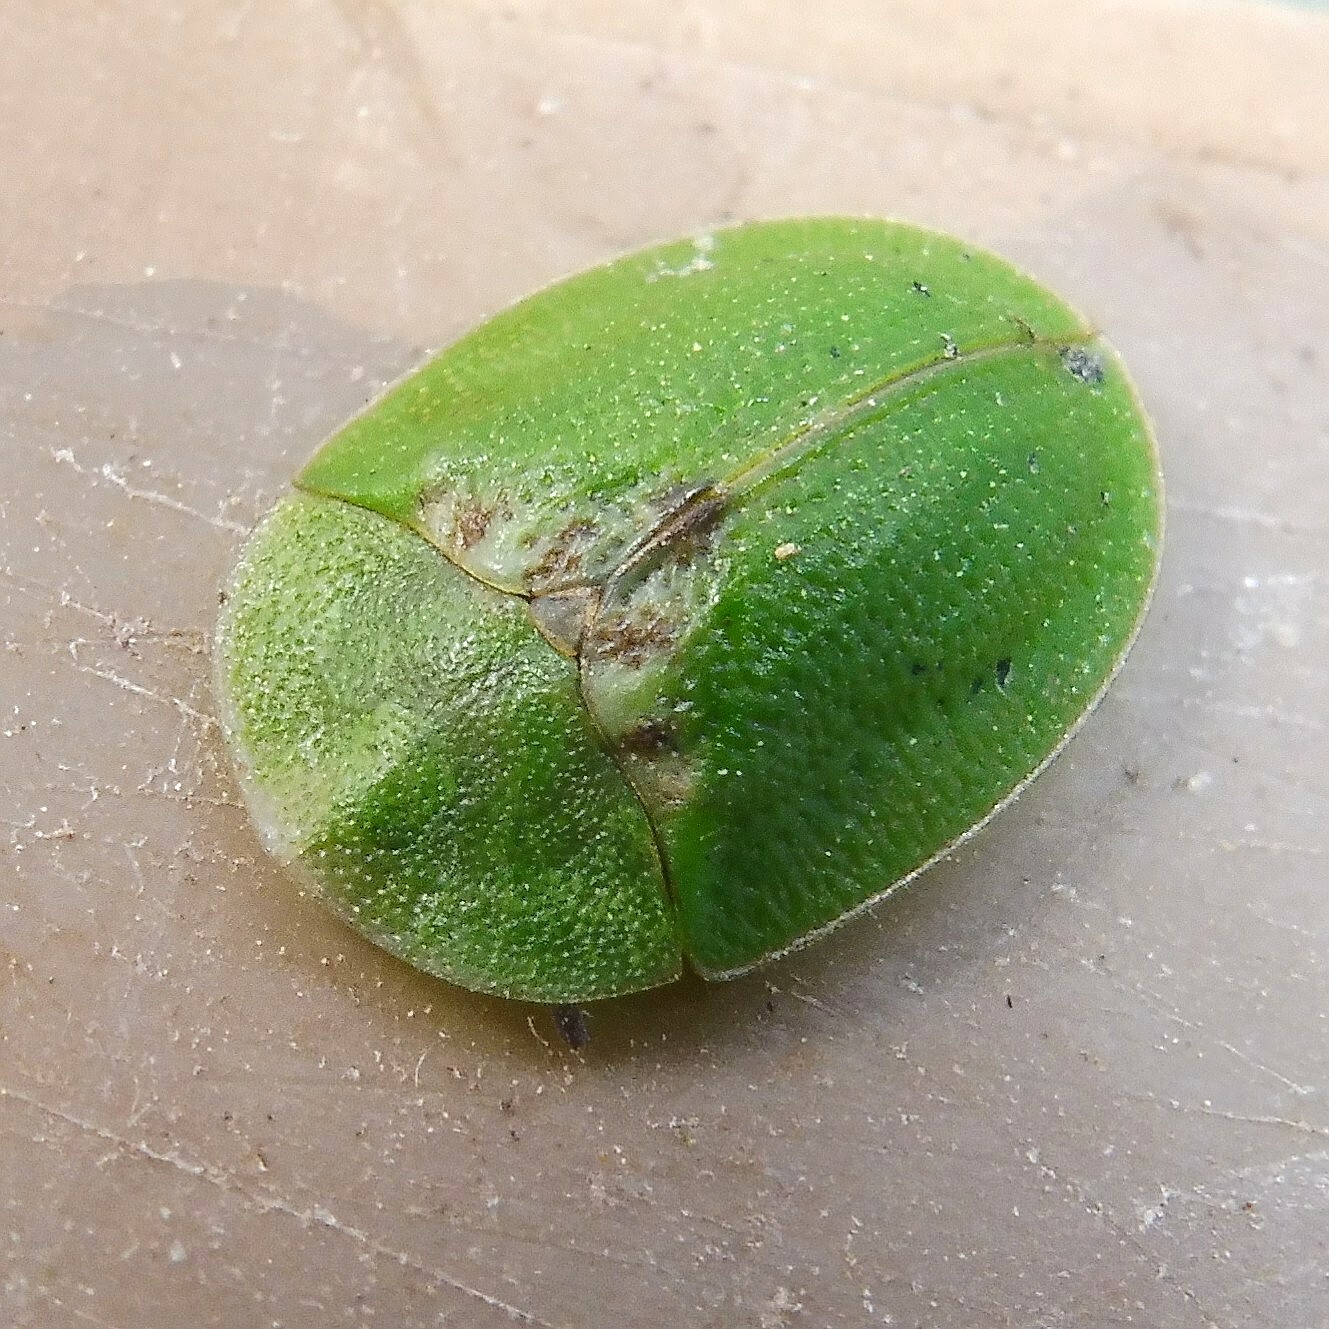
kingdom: Animalia
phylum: Arthropoda
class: Insecta
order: Coleoptera
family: Chrysomelidae
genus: Cassida
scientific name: Cassida rubiginosa
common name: Thistle tortoise beetle
